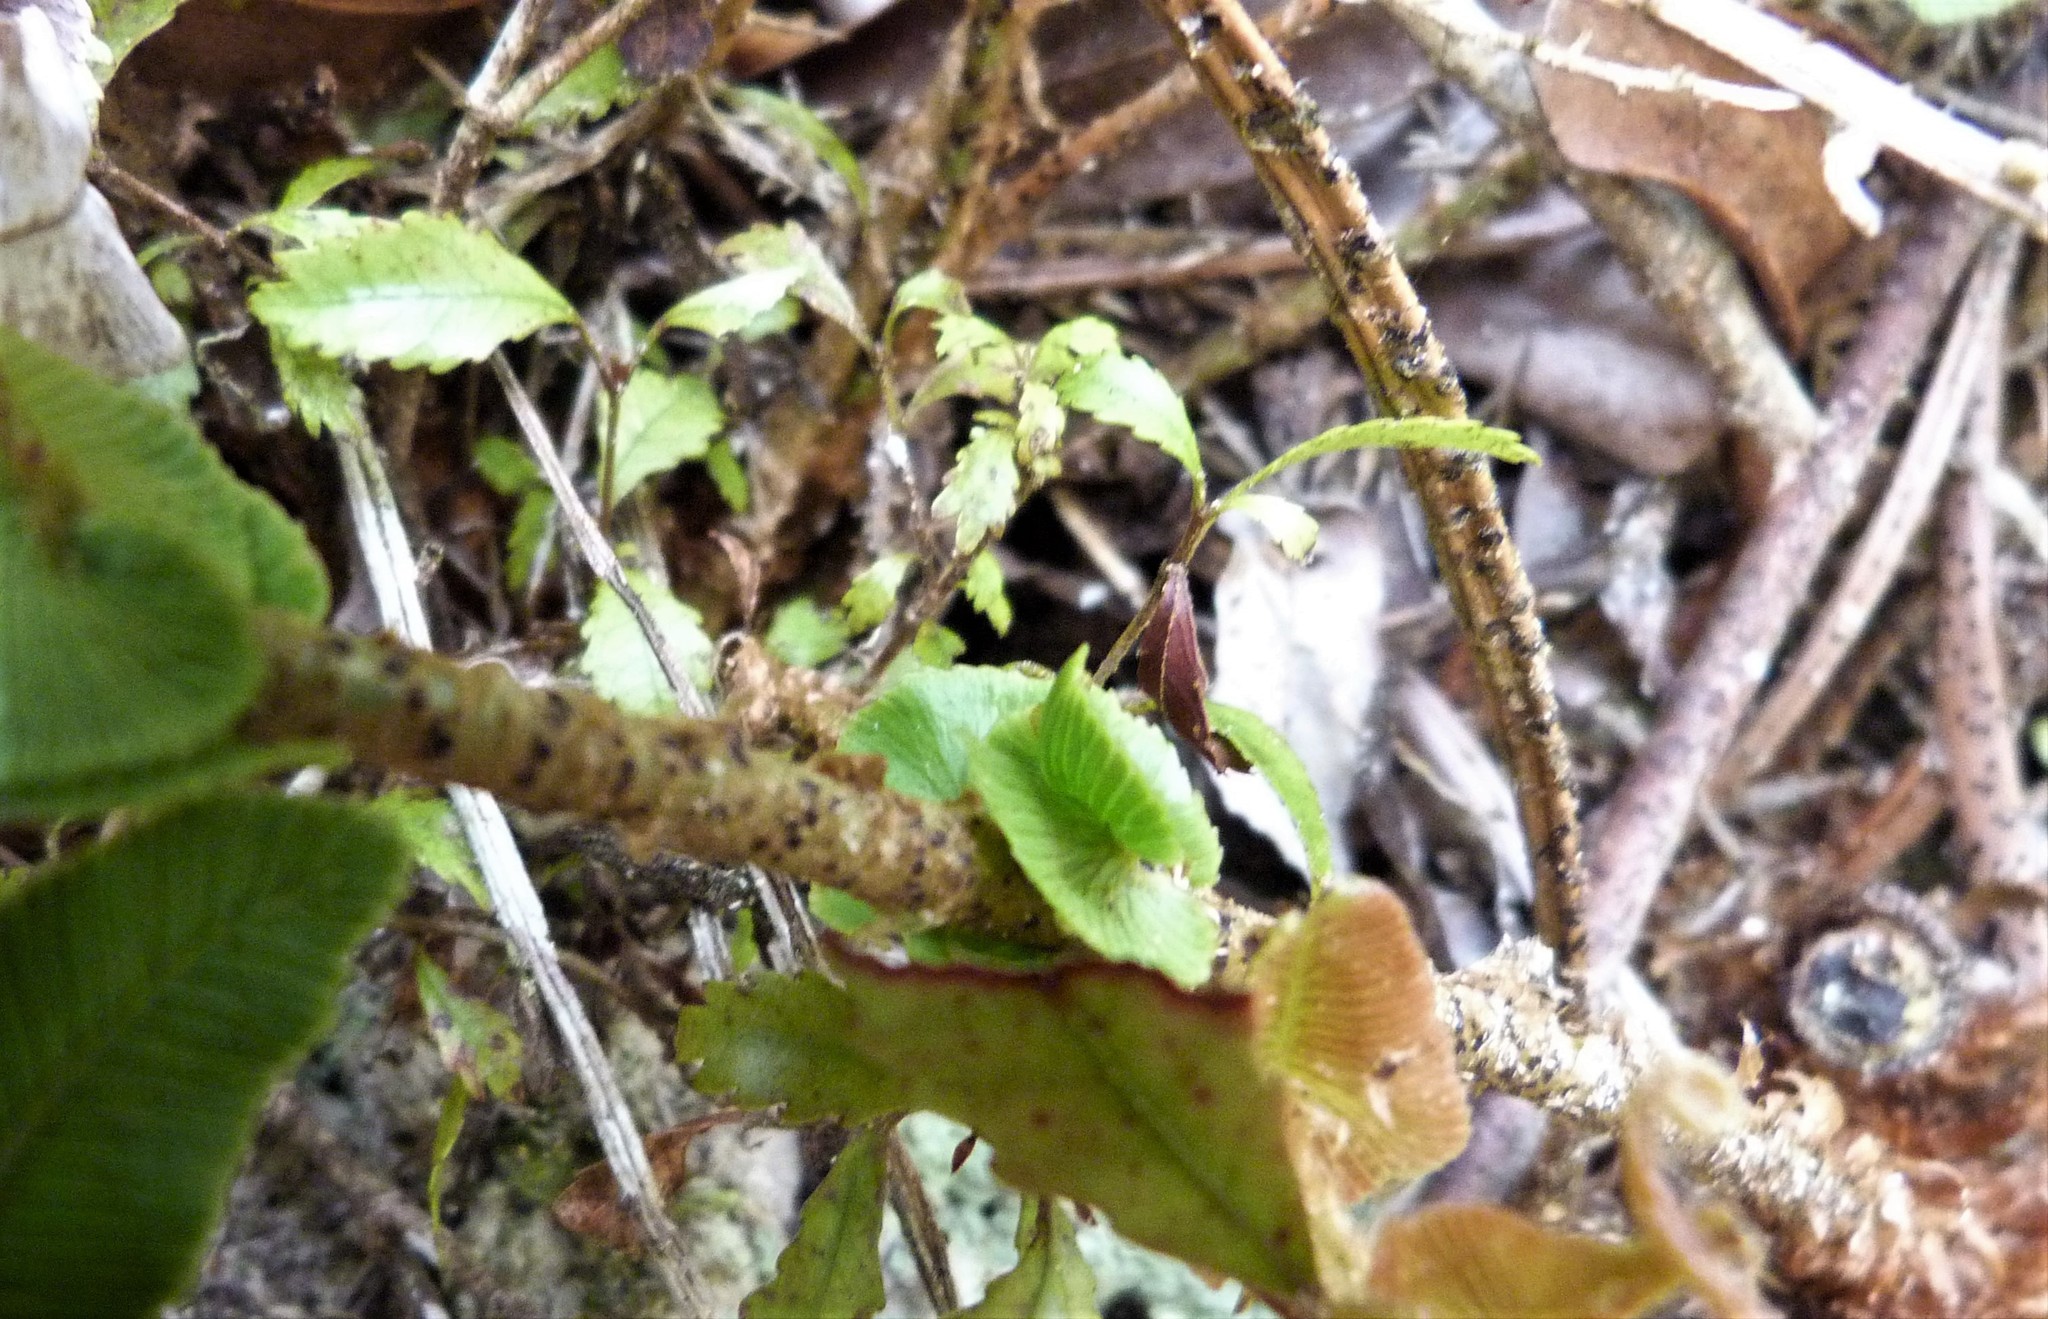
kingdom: Plantae
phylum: Tracheophyta
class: Polypodiopsida
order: Polypodiales
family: Blechnaceae
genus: Parablechnum
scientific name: Parablechnum novae-zelandiae
